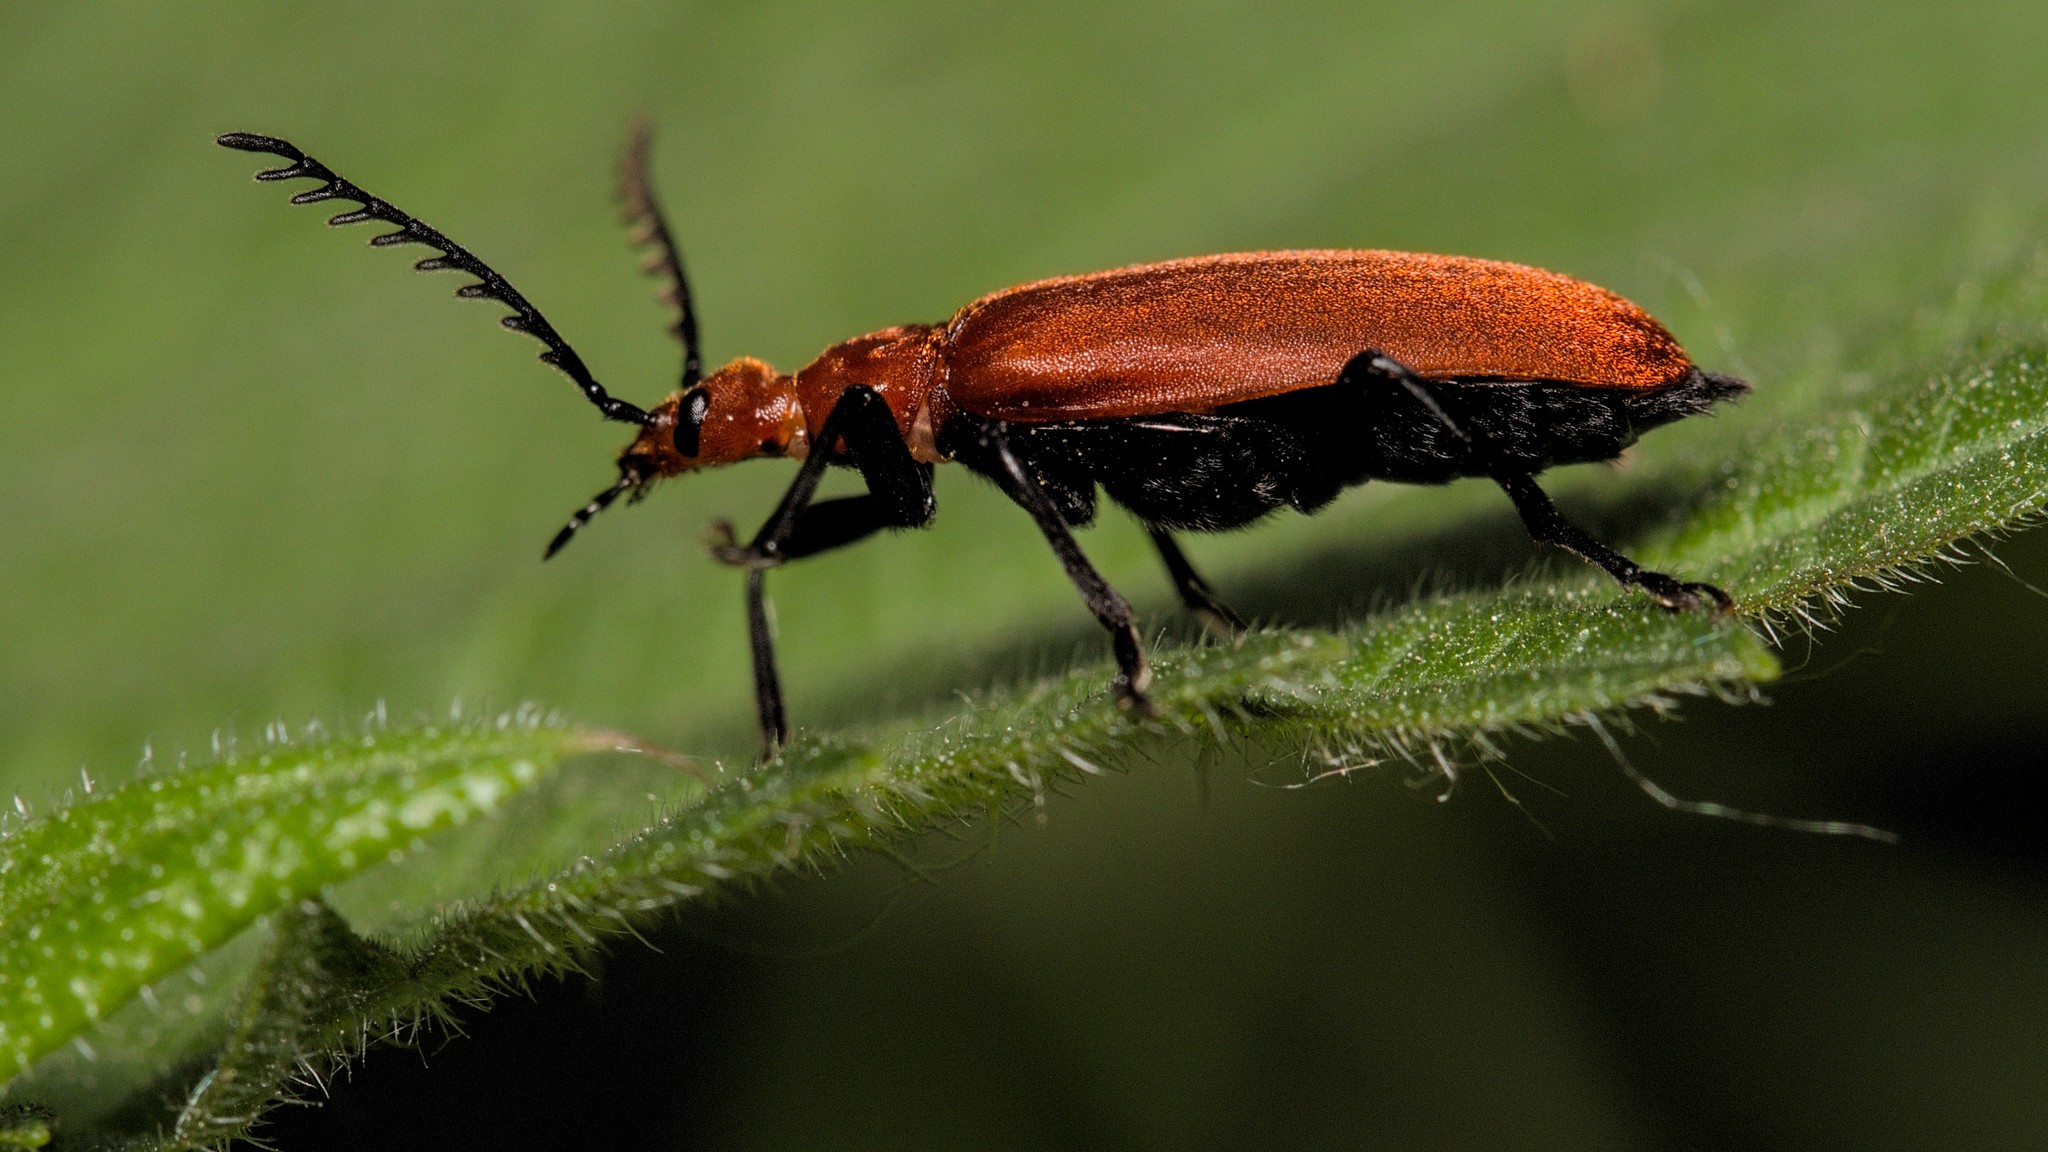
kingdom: Animalia
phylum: Arthropoda
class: Insecta
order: Coleoptera
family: Pyrochroidae
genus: Pyrochroa
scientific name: Pyrochroa serraticornis
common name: Red-headed cardinal beetle
